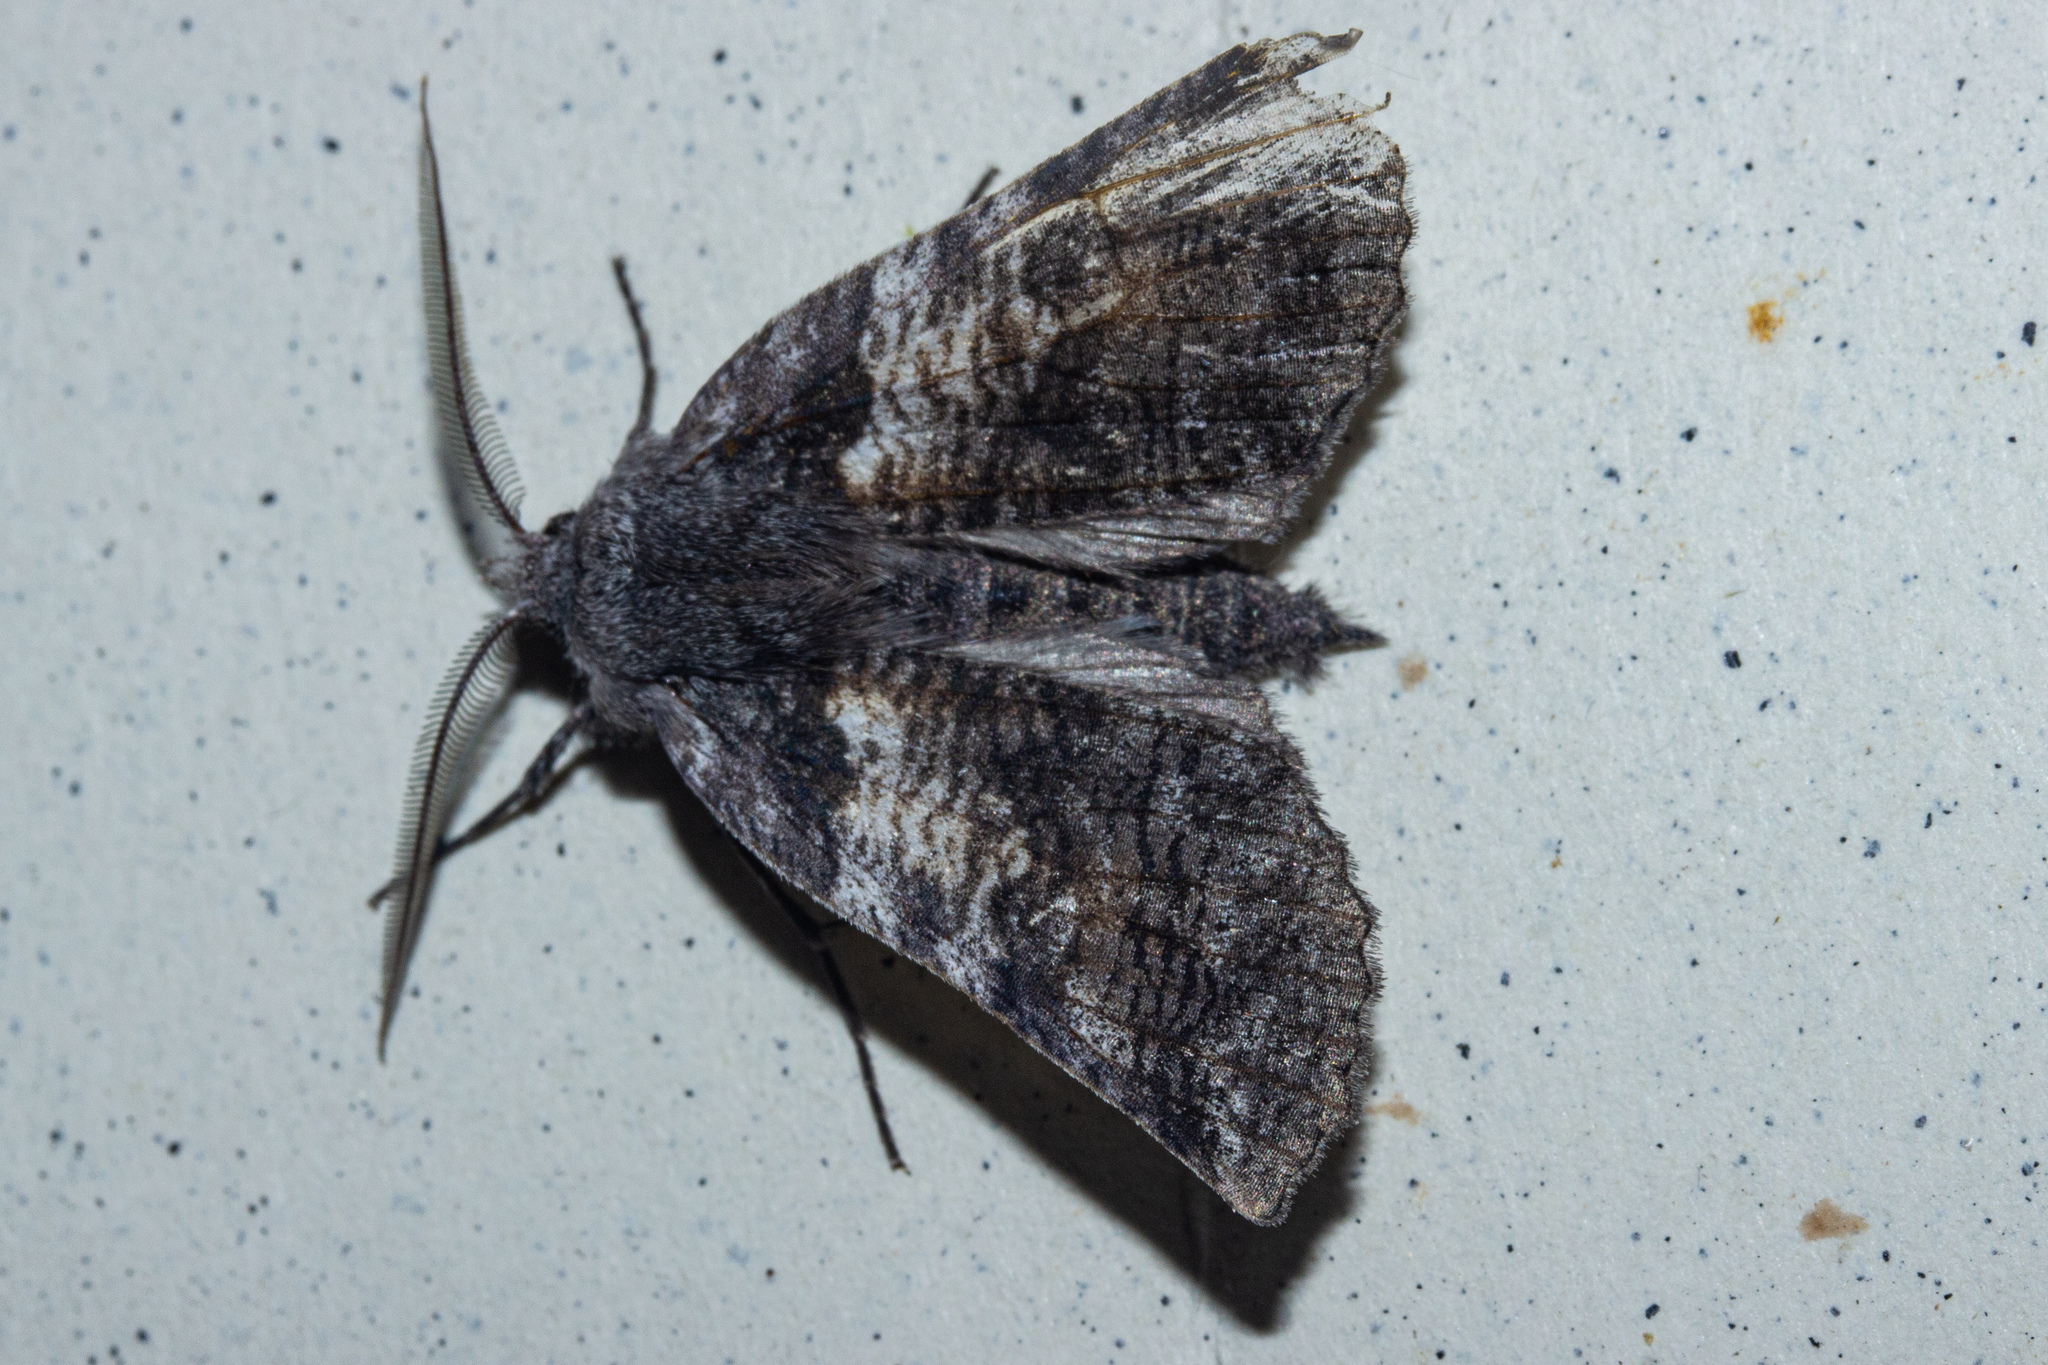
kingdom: Animalia
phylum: Arthropoda
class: Insecta
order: Lepidoptera
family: Geometridae
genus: Declana
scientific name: Declana
